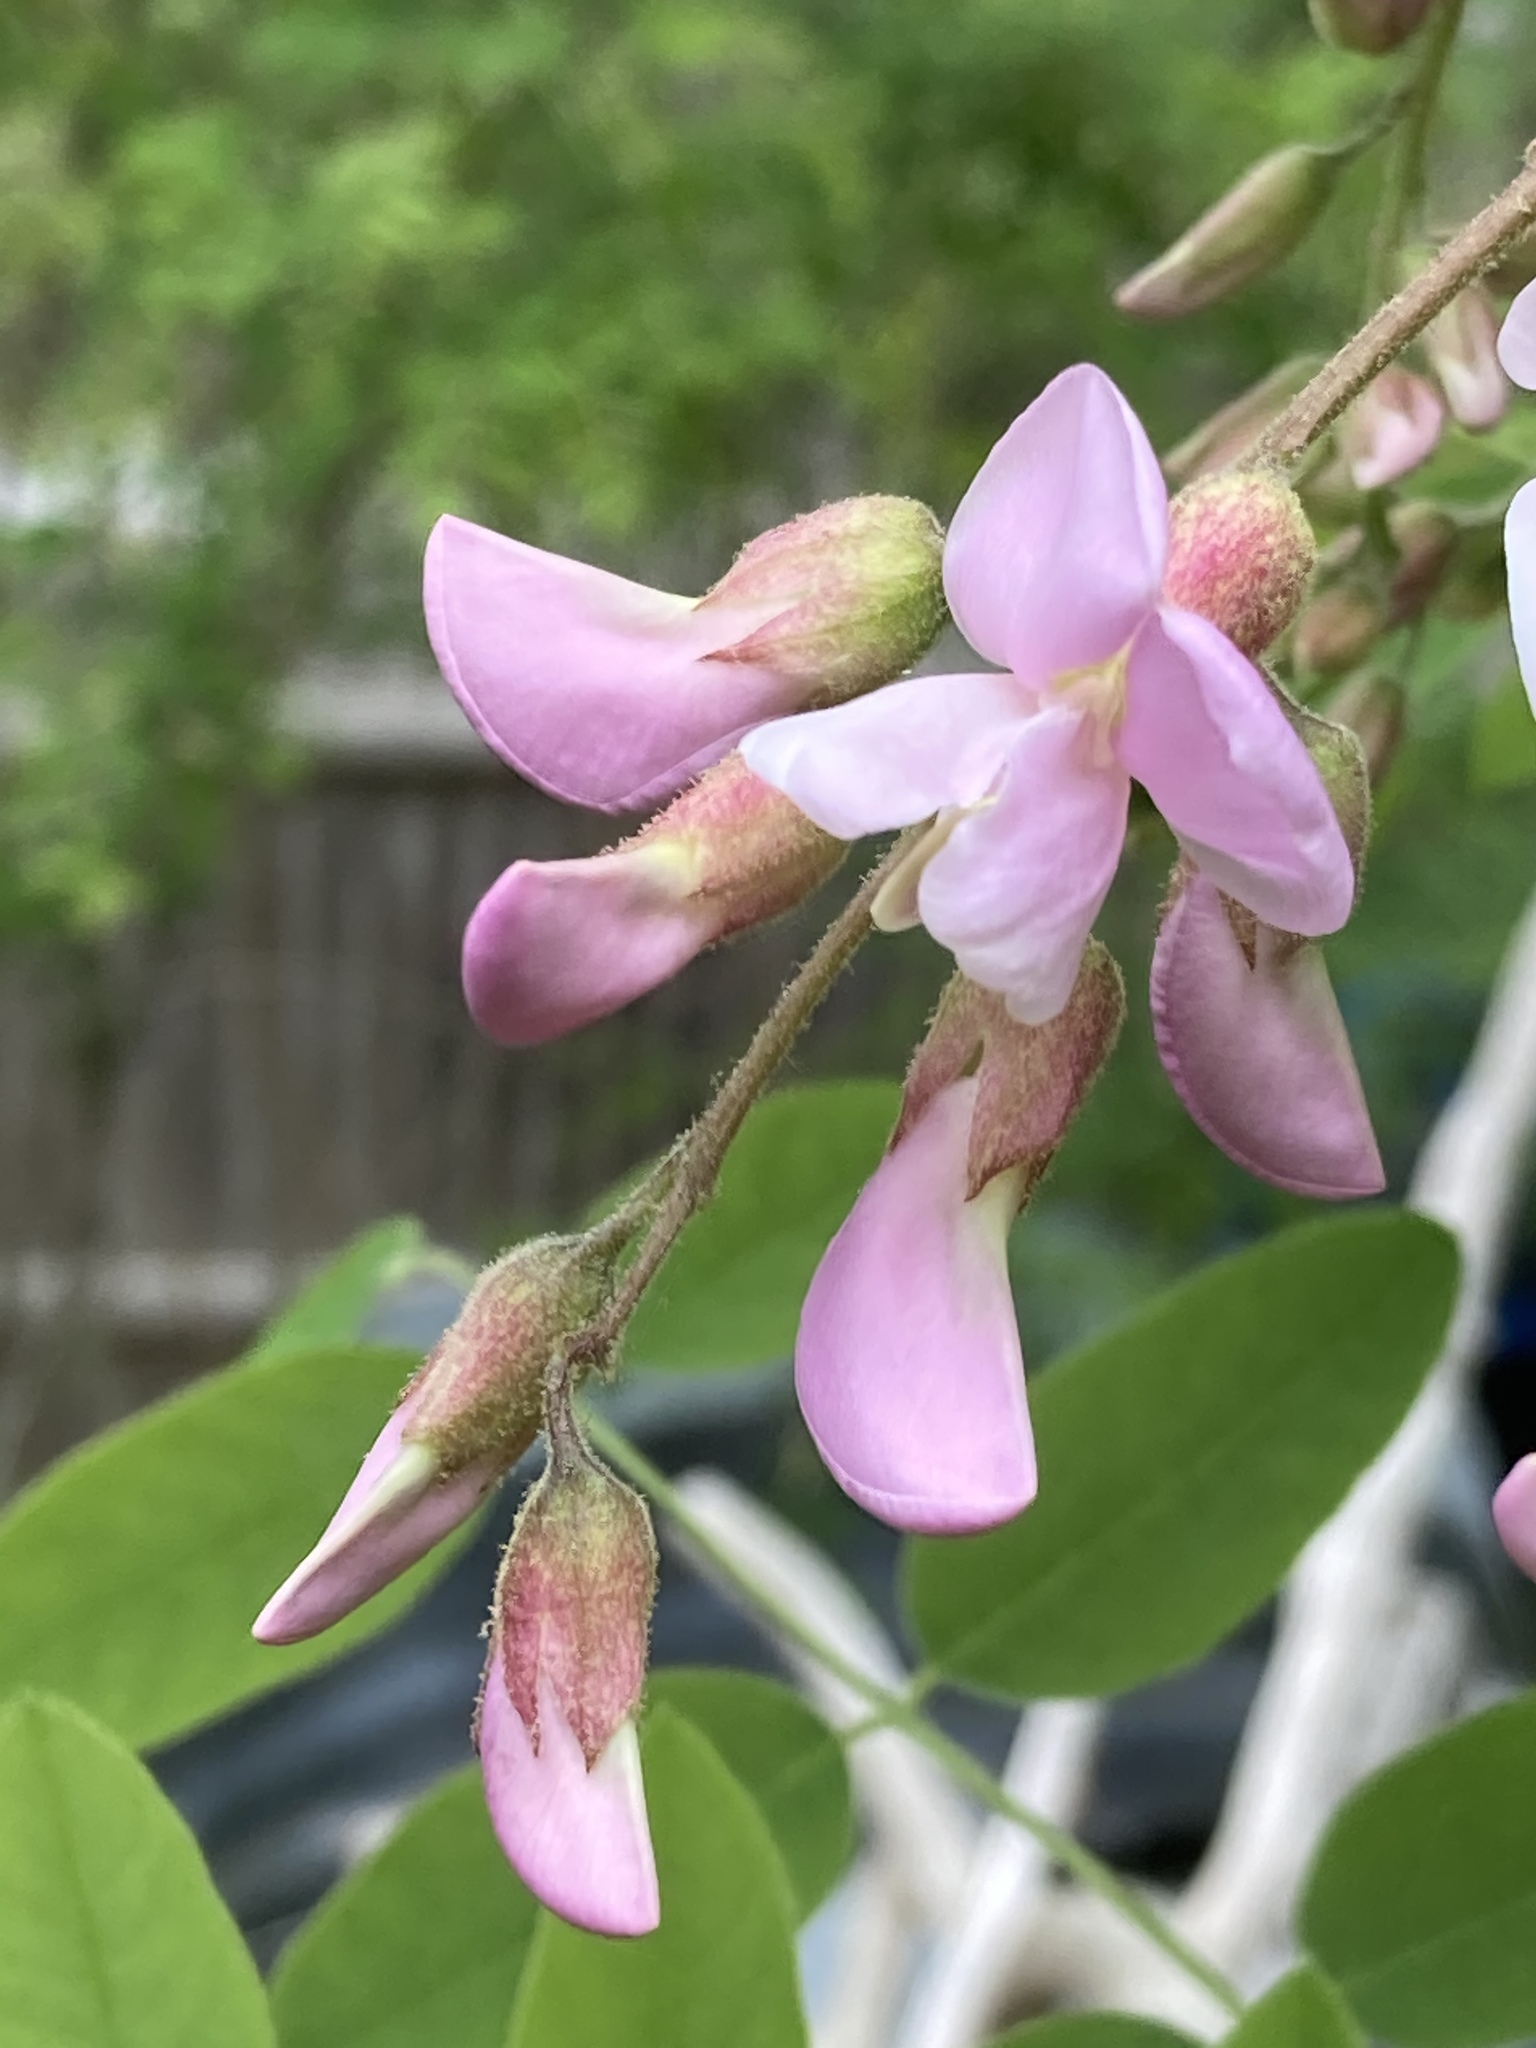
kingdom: Plantae
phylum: Tracheophyta
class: Magnoliopsida
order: Fabales
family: Fabaceae
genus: Robinia
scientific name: Robinia hispida
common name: Bristly locust
